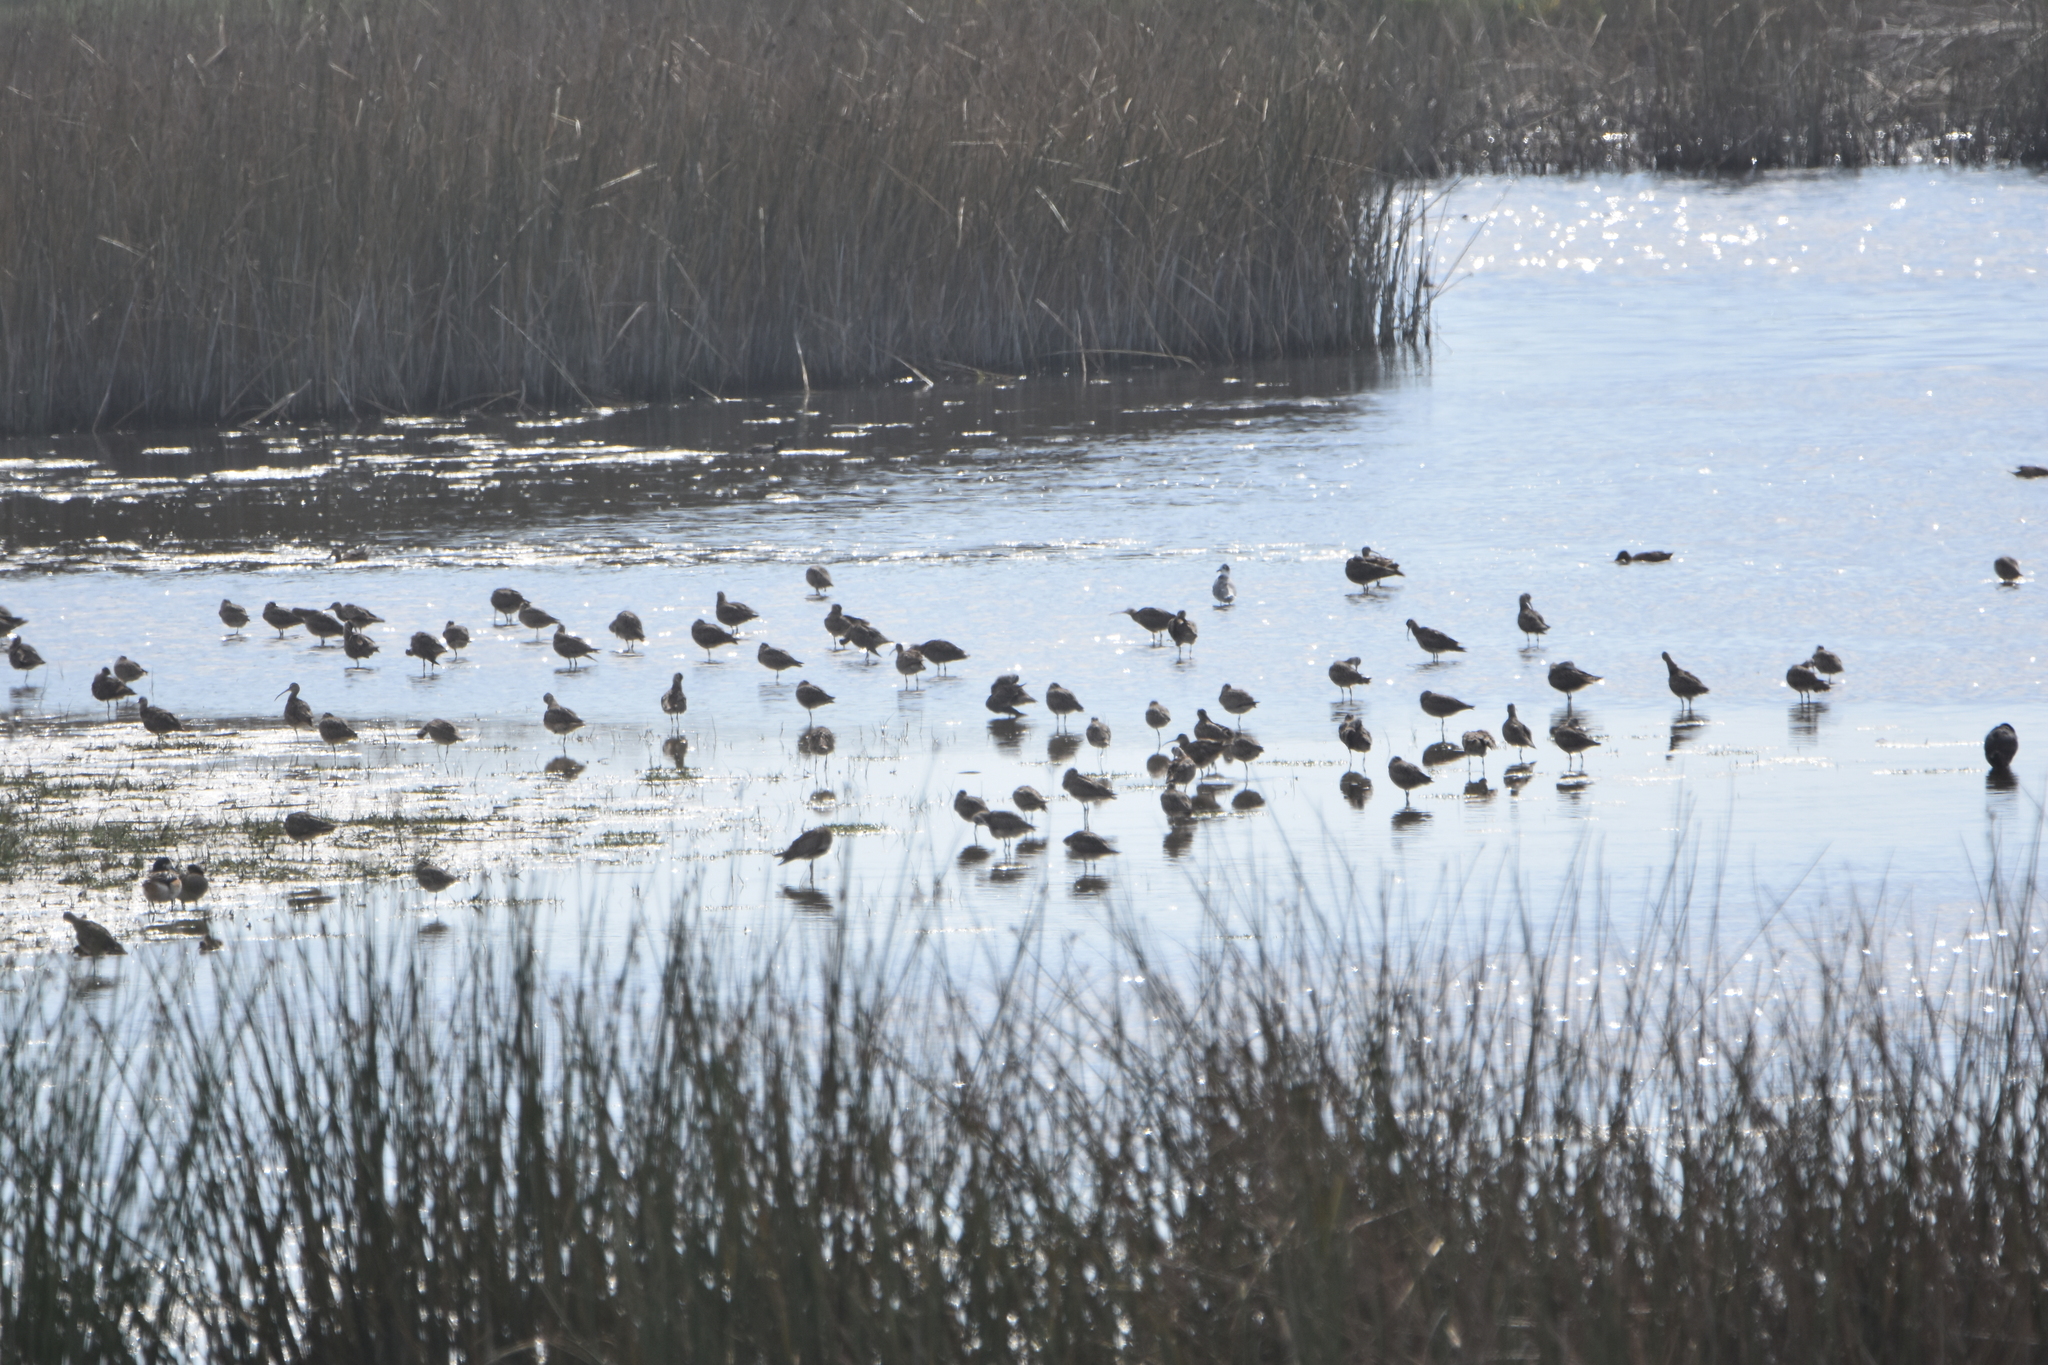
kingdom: Animalia
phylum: Chordata
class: Aves
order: Charadriiformes
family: Scolopacidae
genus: Numenius
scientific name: Numenius phaeopus
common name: Whimbrel
